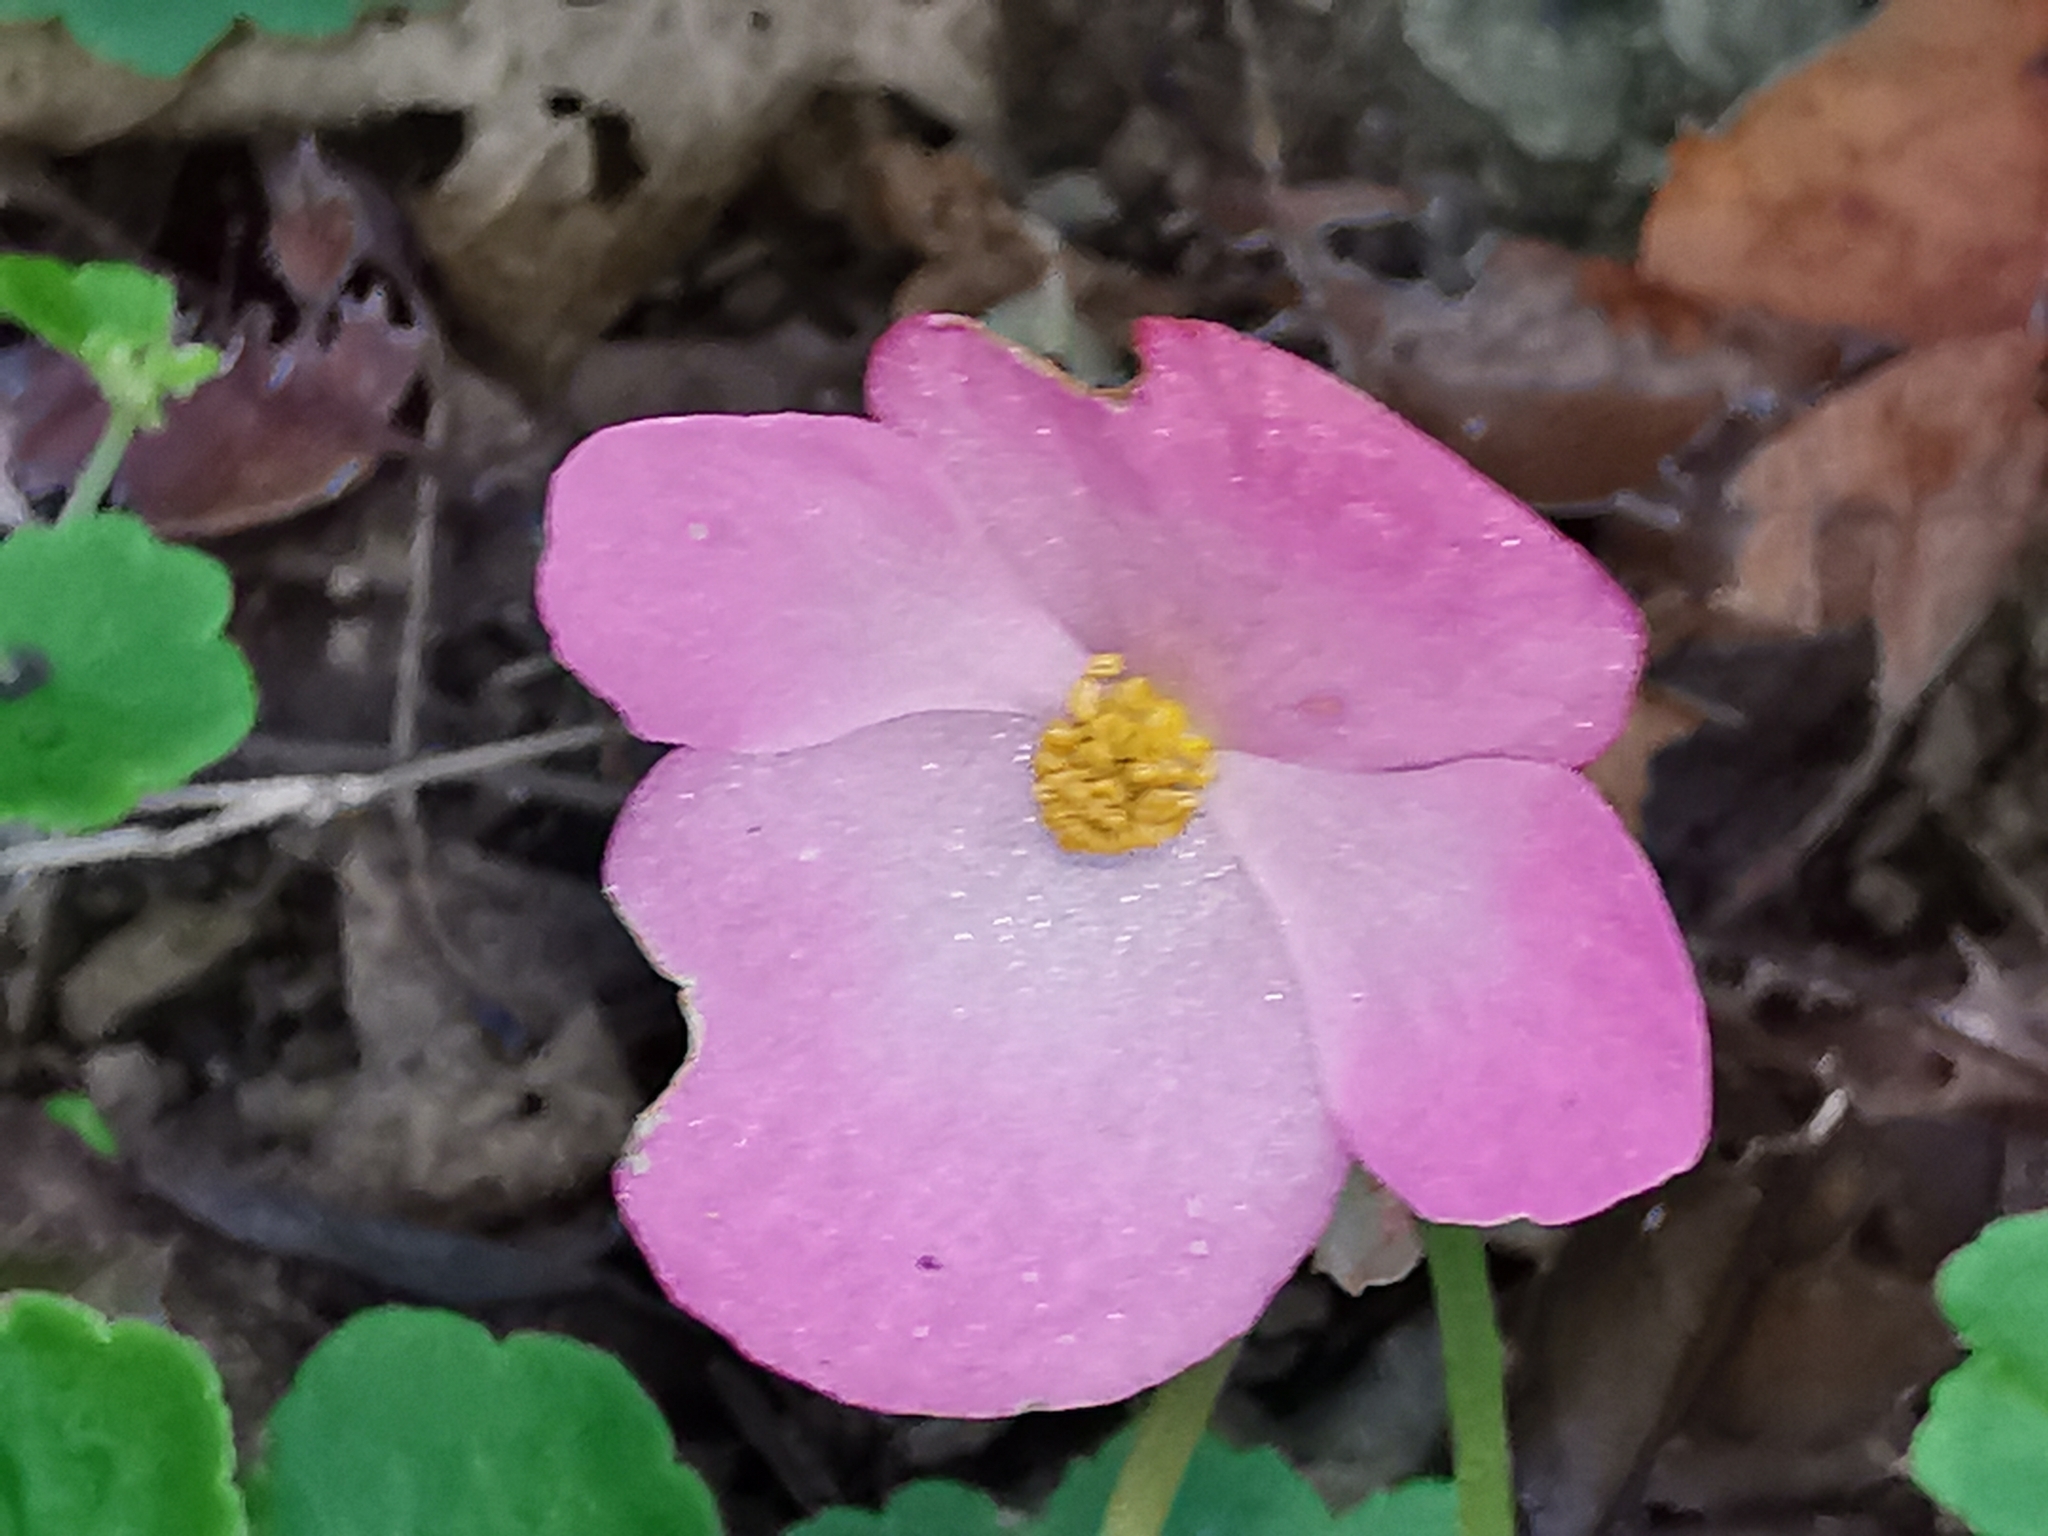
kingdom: Plantae
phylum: Tracheophyta
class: Magnoliopsida
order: Cucurbitales
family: Begoniaceae
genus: Begonia
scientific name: Begonia uniflora
